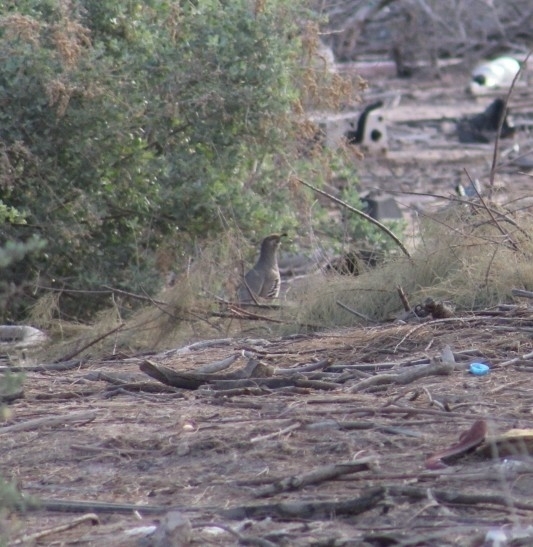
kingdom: Animalia
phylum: Chordata
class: Aves
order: Galliformes
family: Odontophoridae
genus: Callipepla
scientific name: Callipepla gambelii
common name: Gambel's quail
